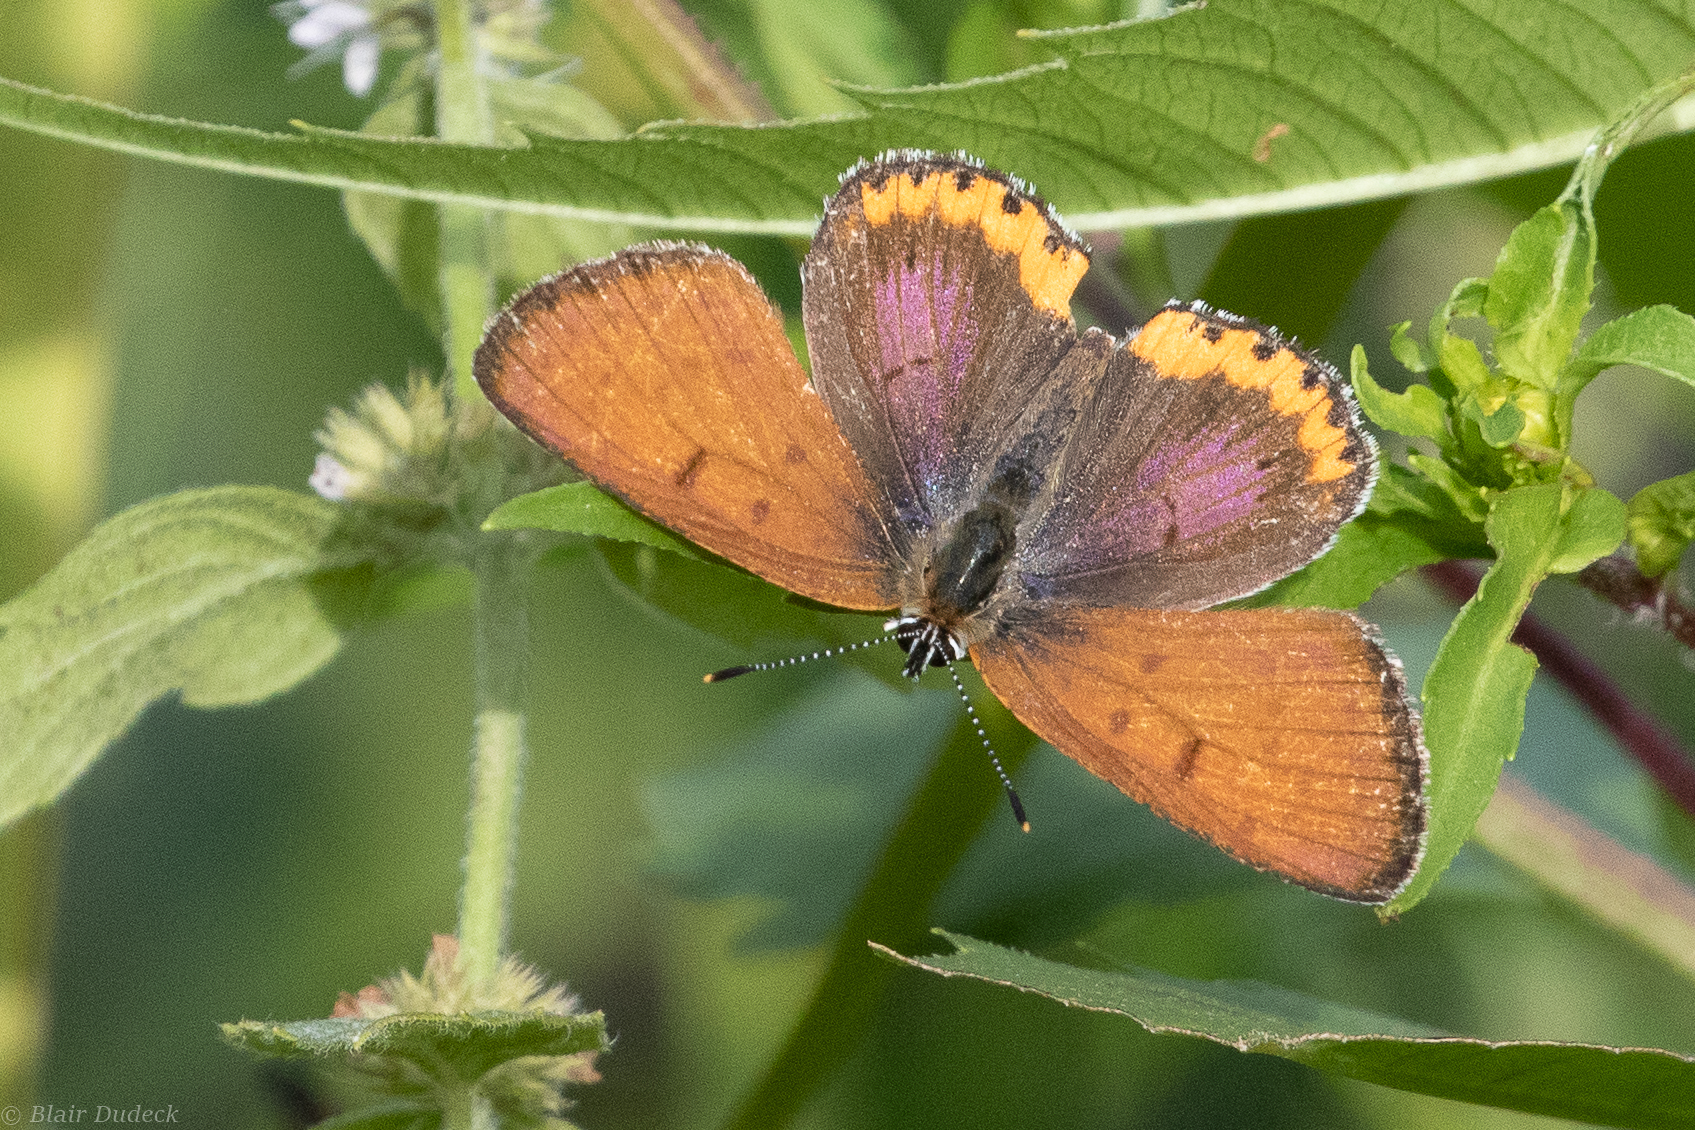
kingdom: Animalia
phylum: Arthropoda
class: Insecta
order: Lepidoptera
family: Lycaenidae
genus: Tharsalea
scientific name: Tharsalea hyllus
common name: Bronze copper
